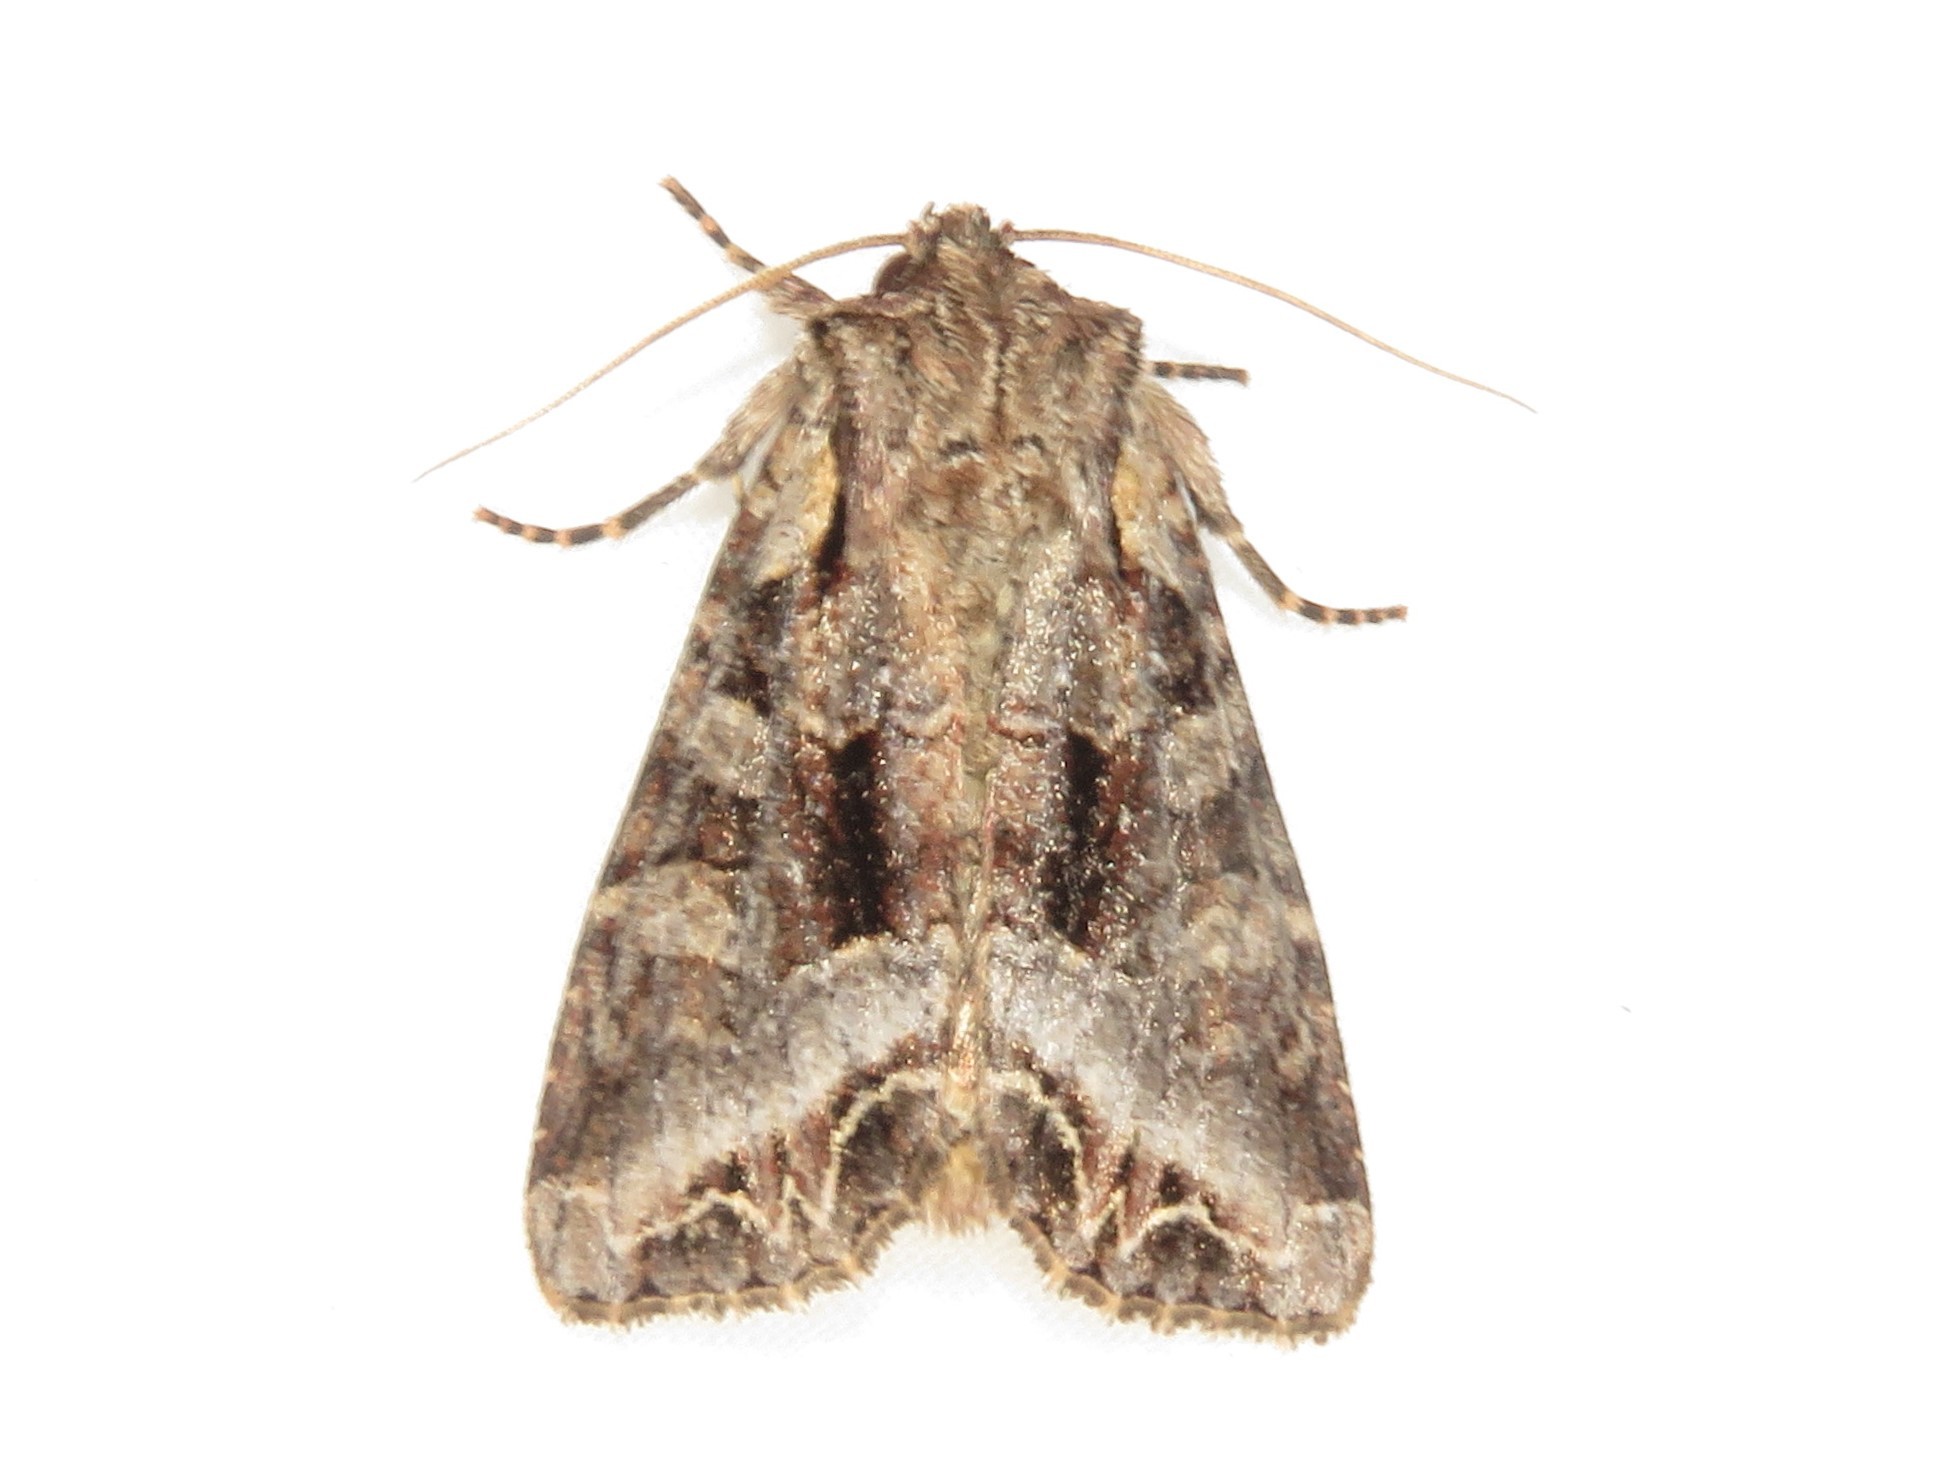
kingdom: Animalia
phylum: Arthropoda
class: Insecta
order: Lepidoptera
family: Noctuidae
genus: Lacanobia
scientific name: Lacanobia grandis
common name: Grand arches moth
